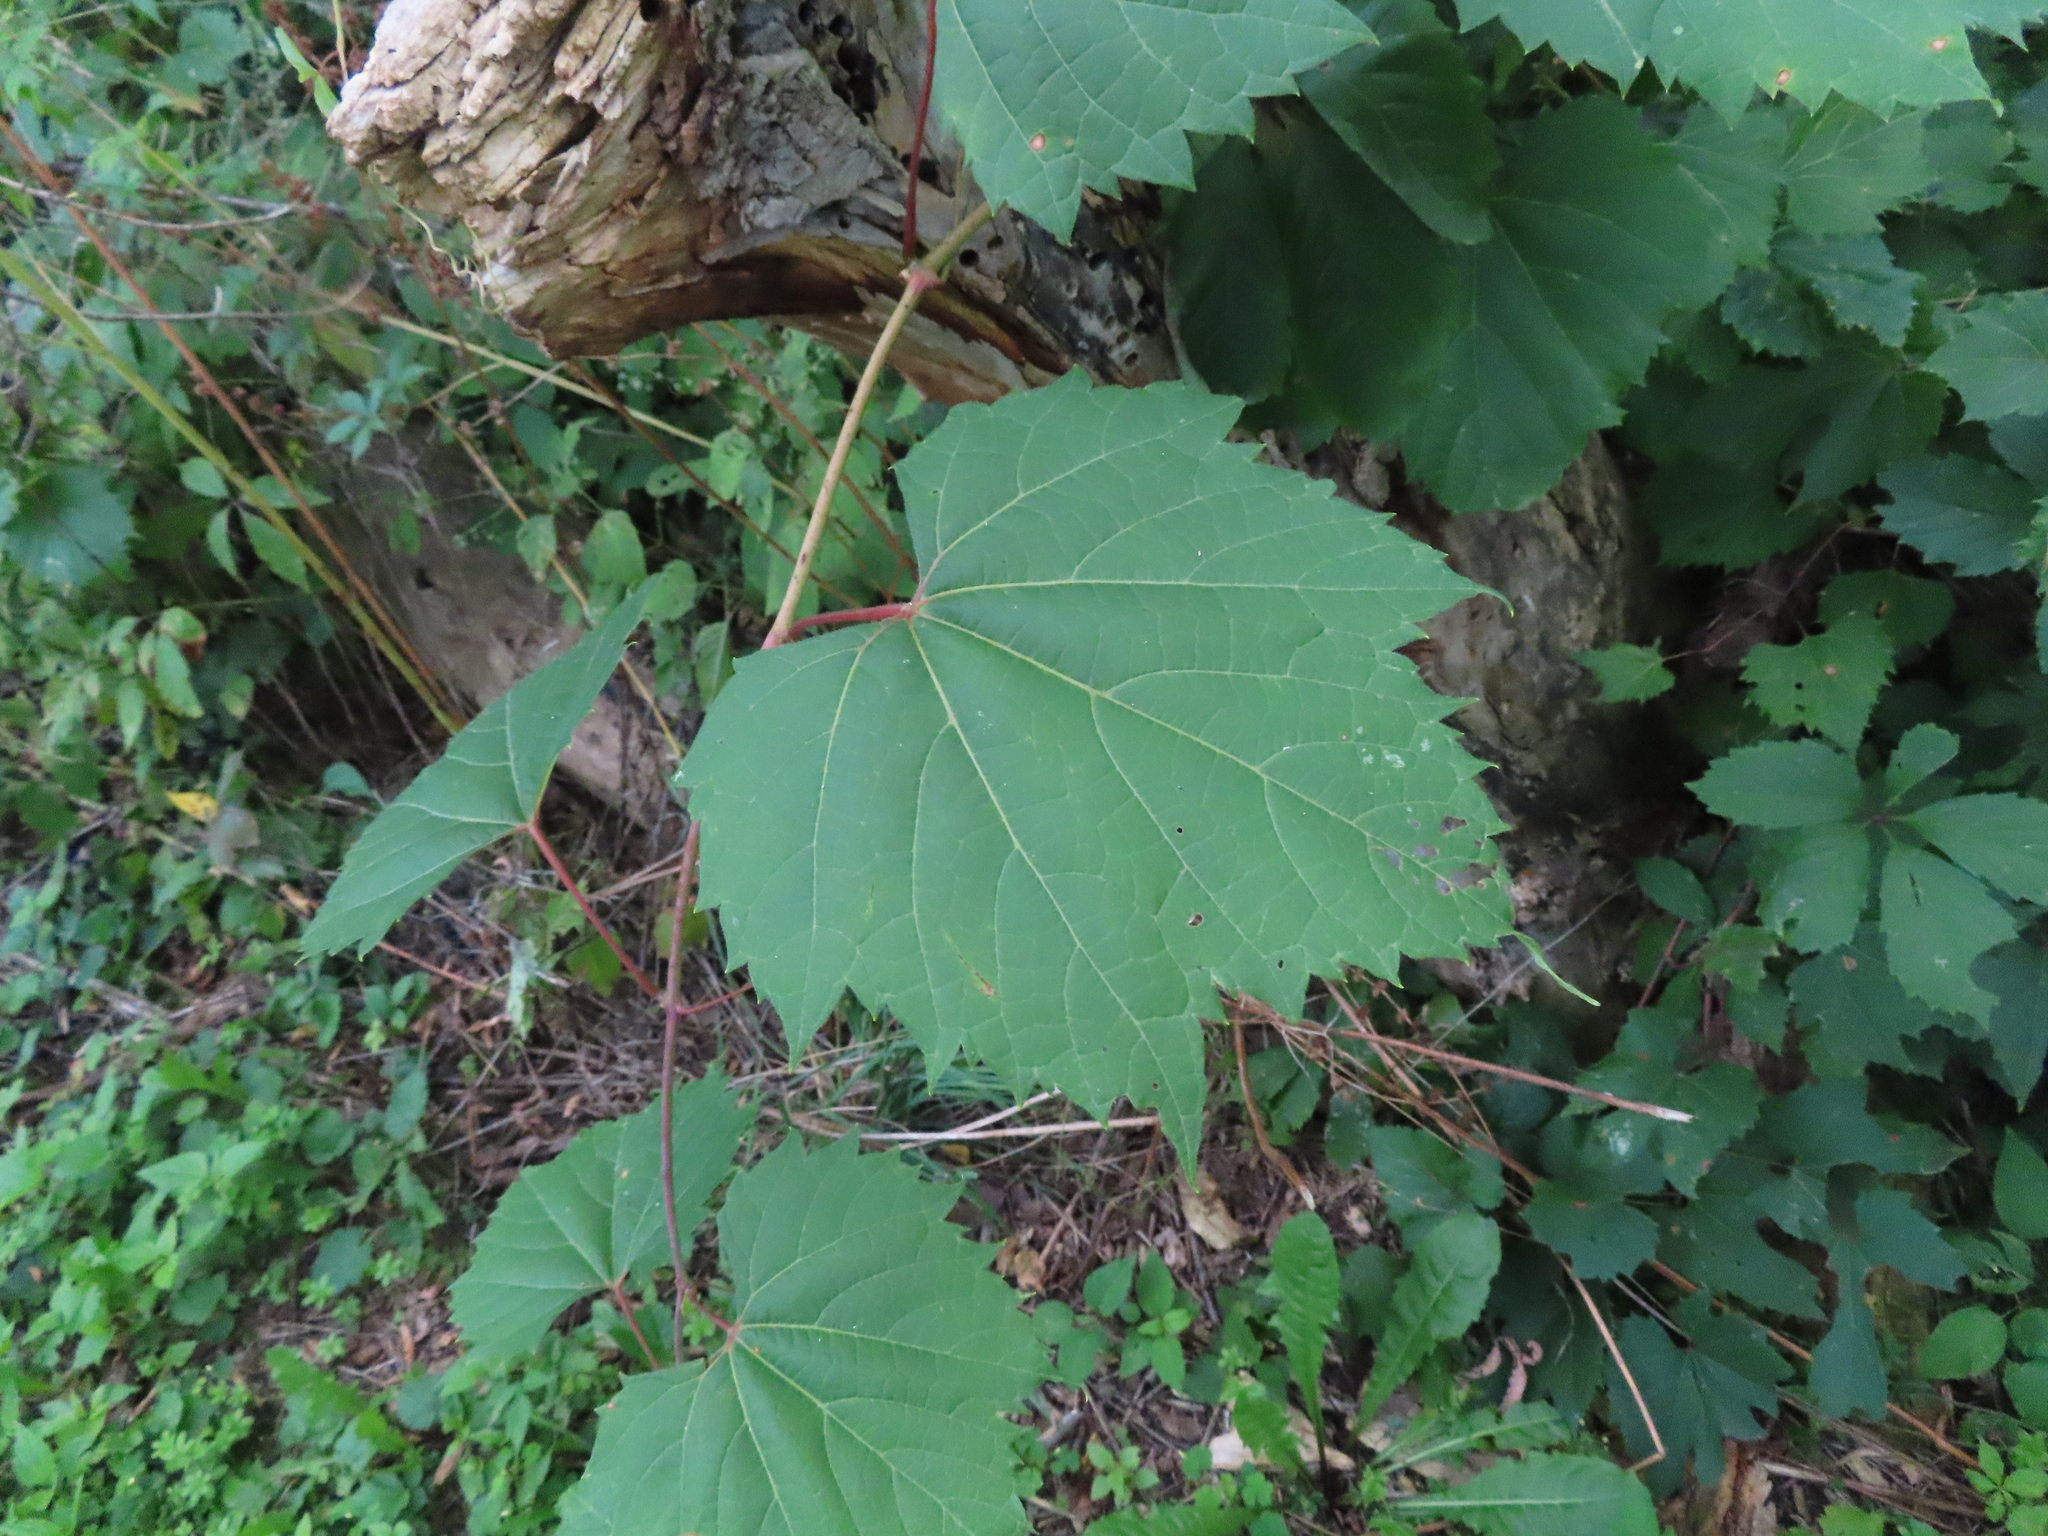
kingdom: Plantae
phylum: Tracheophyta
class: Magnoliopsida
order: Vitales
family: Vitaceae
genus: Vitis
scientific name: Vitis riparia
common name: Frost grape
